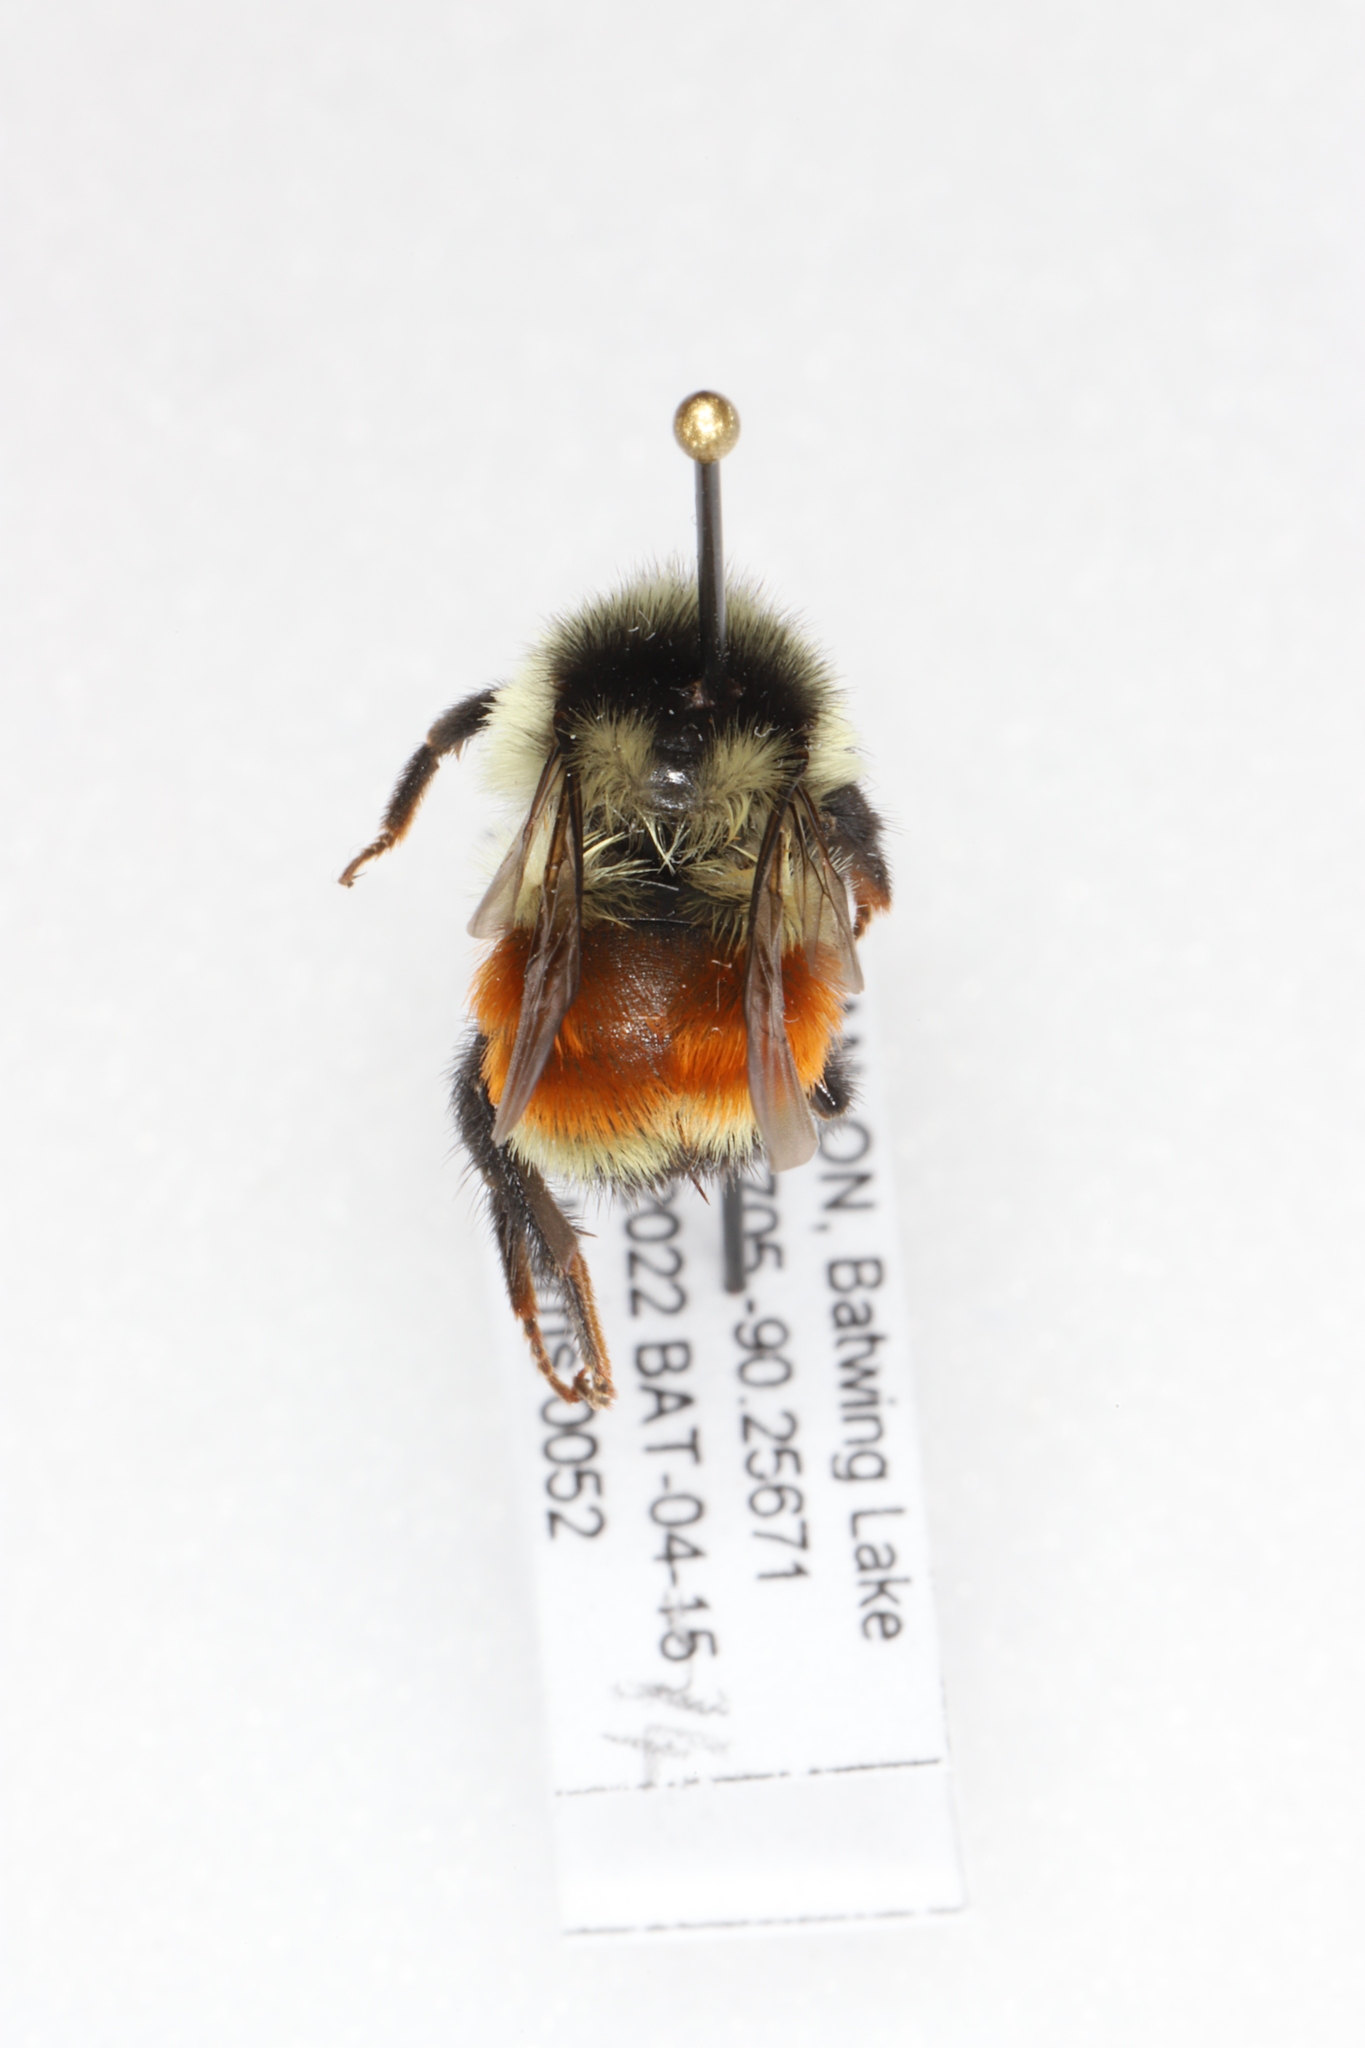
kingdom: Animalia
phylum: Arthropoda
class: Insecta
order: Hymenoptera
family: Apidae
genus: Bombus
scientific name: Bombus ternarius
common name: Tri-colored bumble bee
